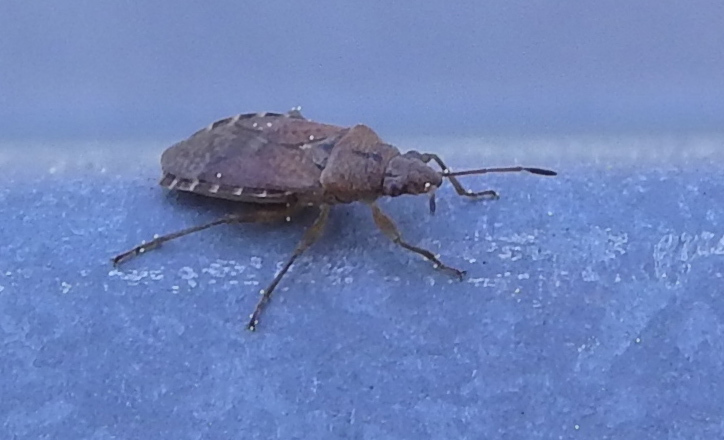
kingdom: Animalia
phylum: Arthropoda
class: Insecta
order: Hemiptera
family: Lygaeidae
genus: Orsillus
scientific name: Orsillus depressus
